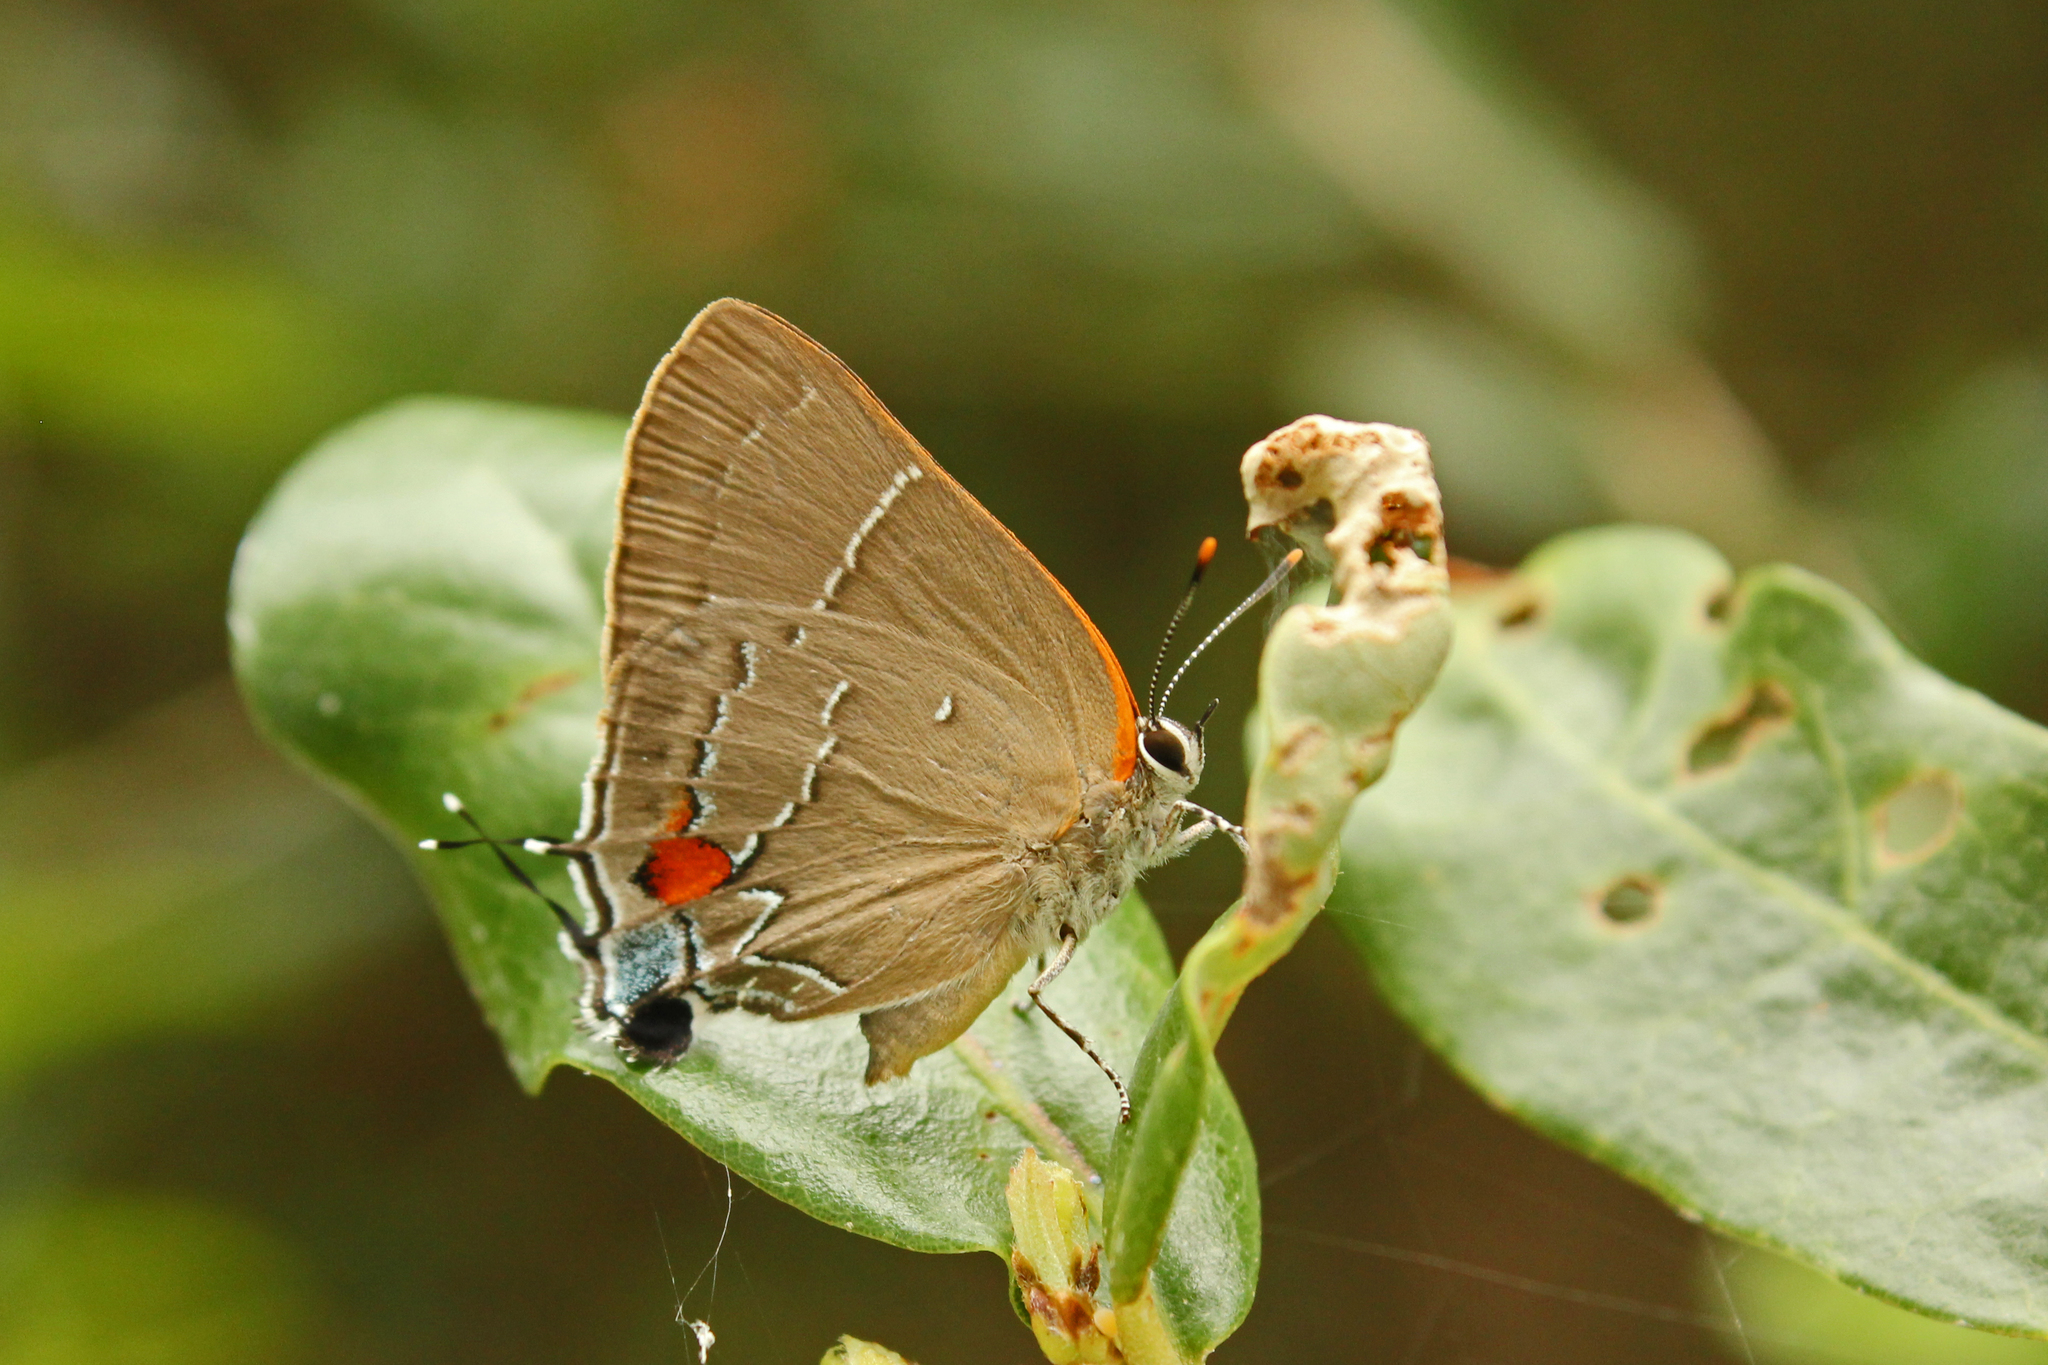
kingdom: Animalia
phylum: Arthropoda
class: Insecta
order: Lepidoptera
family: Lycaenidae
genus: Parrhasius
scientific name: Parrhasius m-album
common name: White m hairstreak
